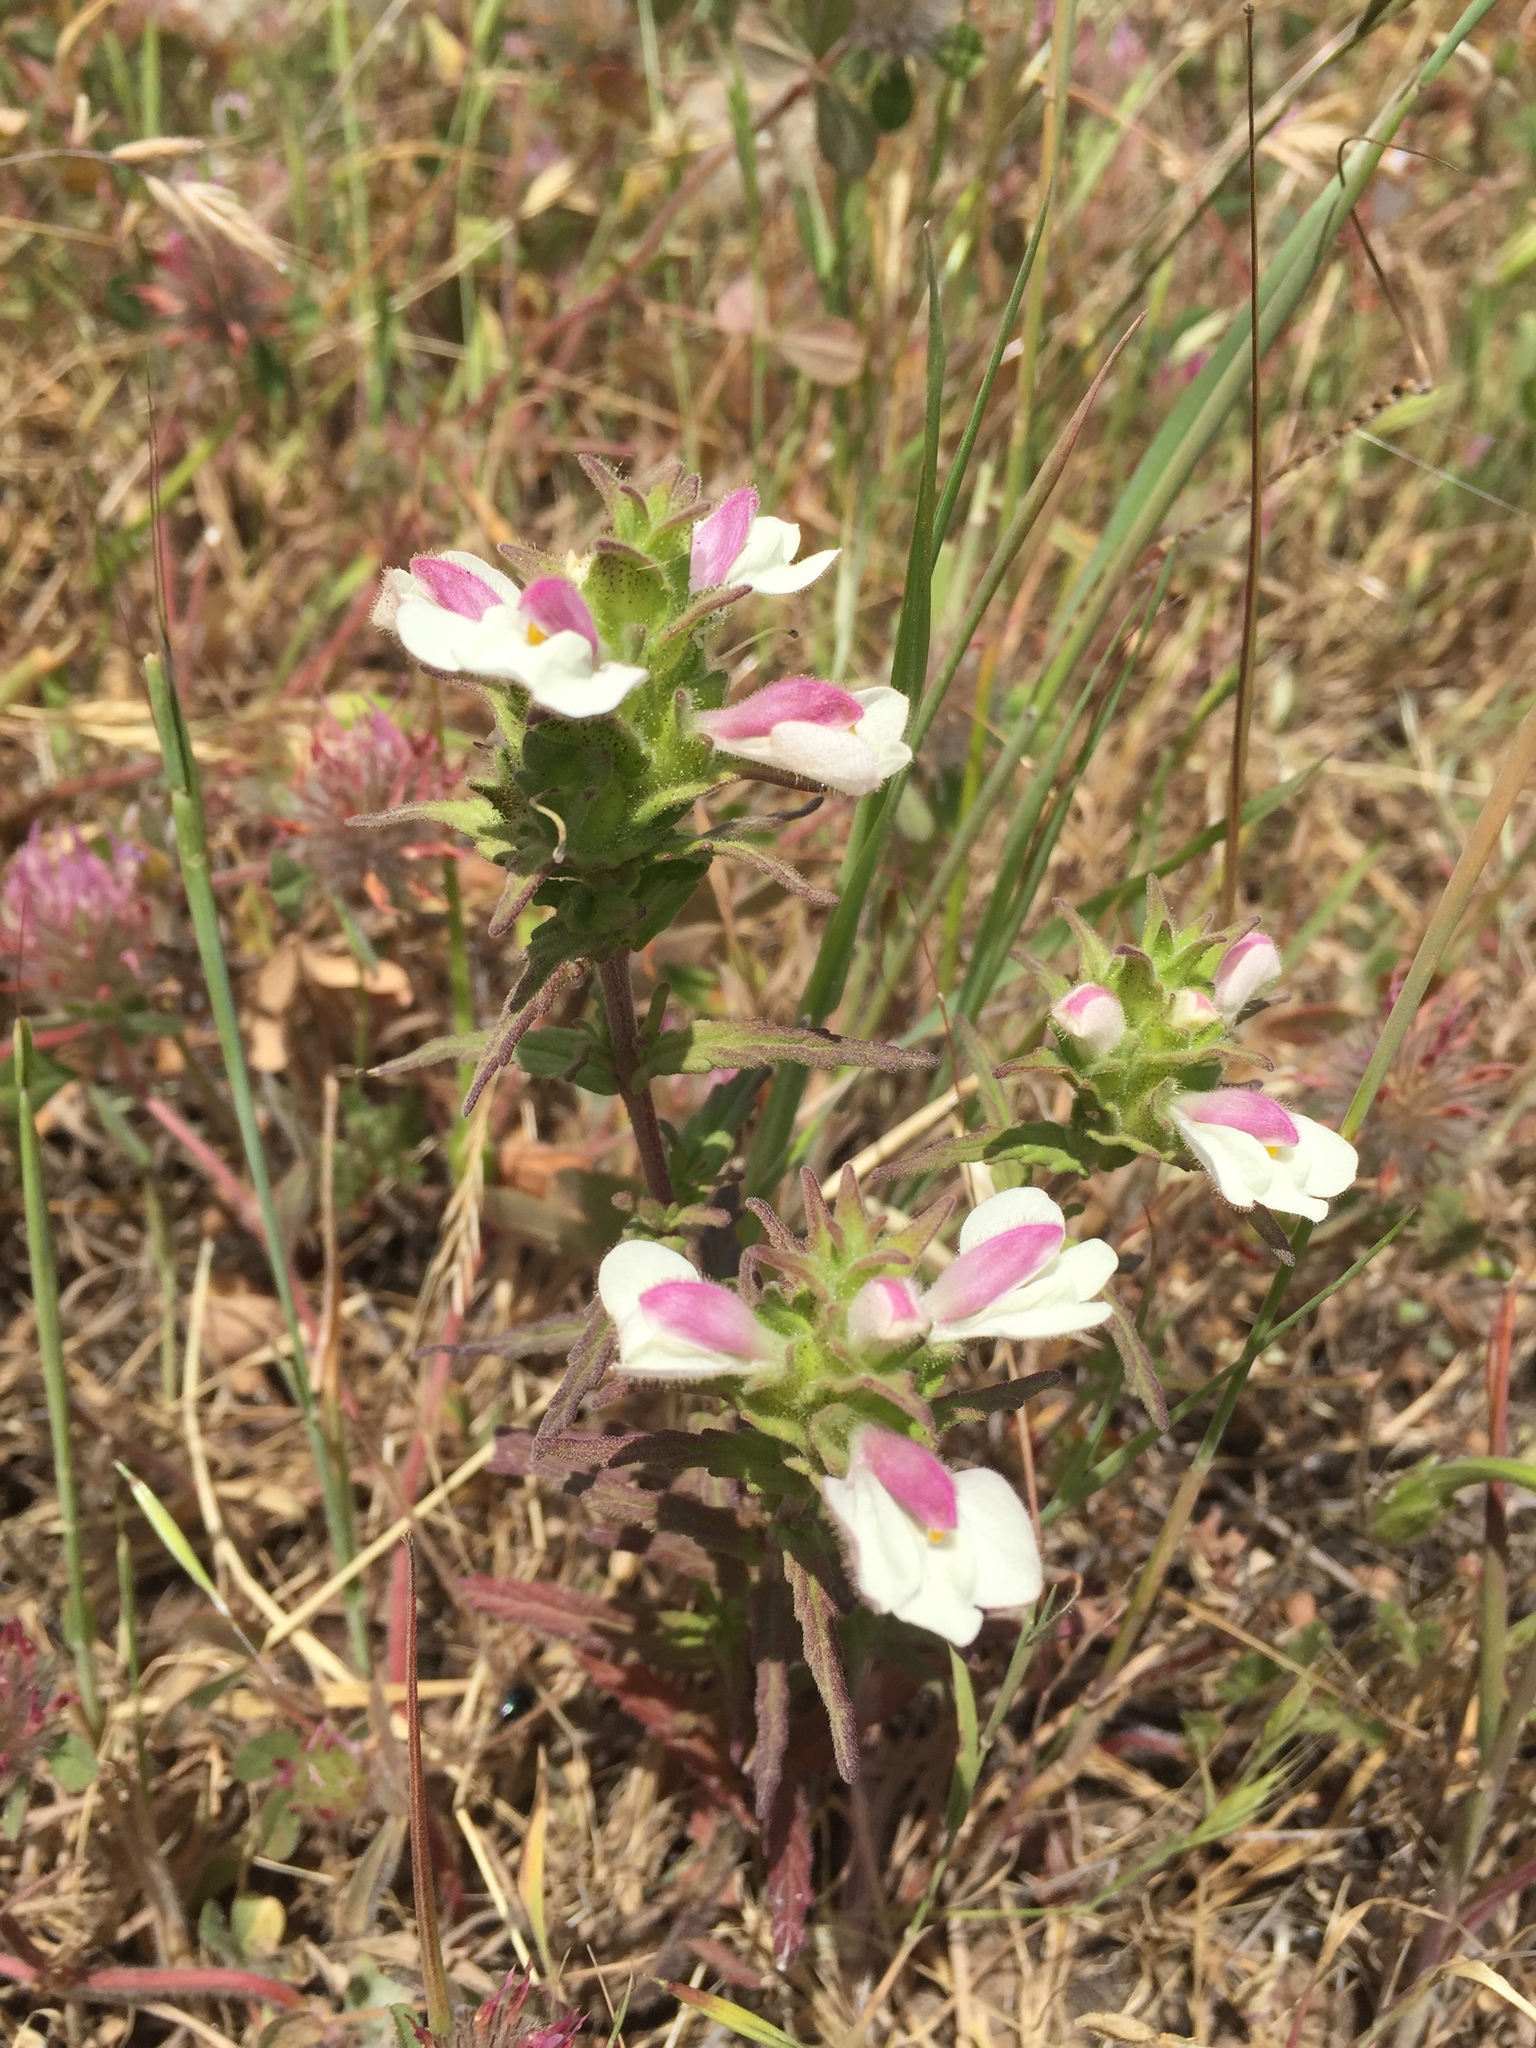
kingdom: Plantae
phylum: Tracheophyta
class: Magnoliopsida
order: Lamiales
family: Orobanchaceae
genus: Bellardia
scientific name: Bellardia trixago
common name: Mediterranean lineseed
